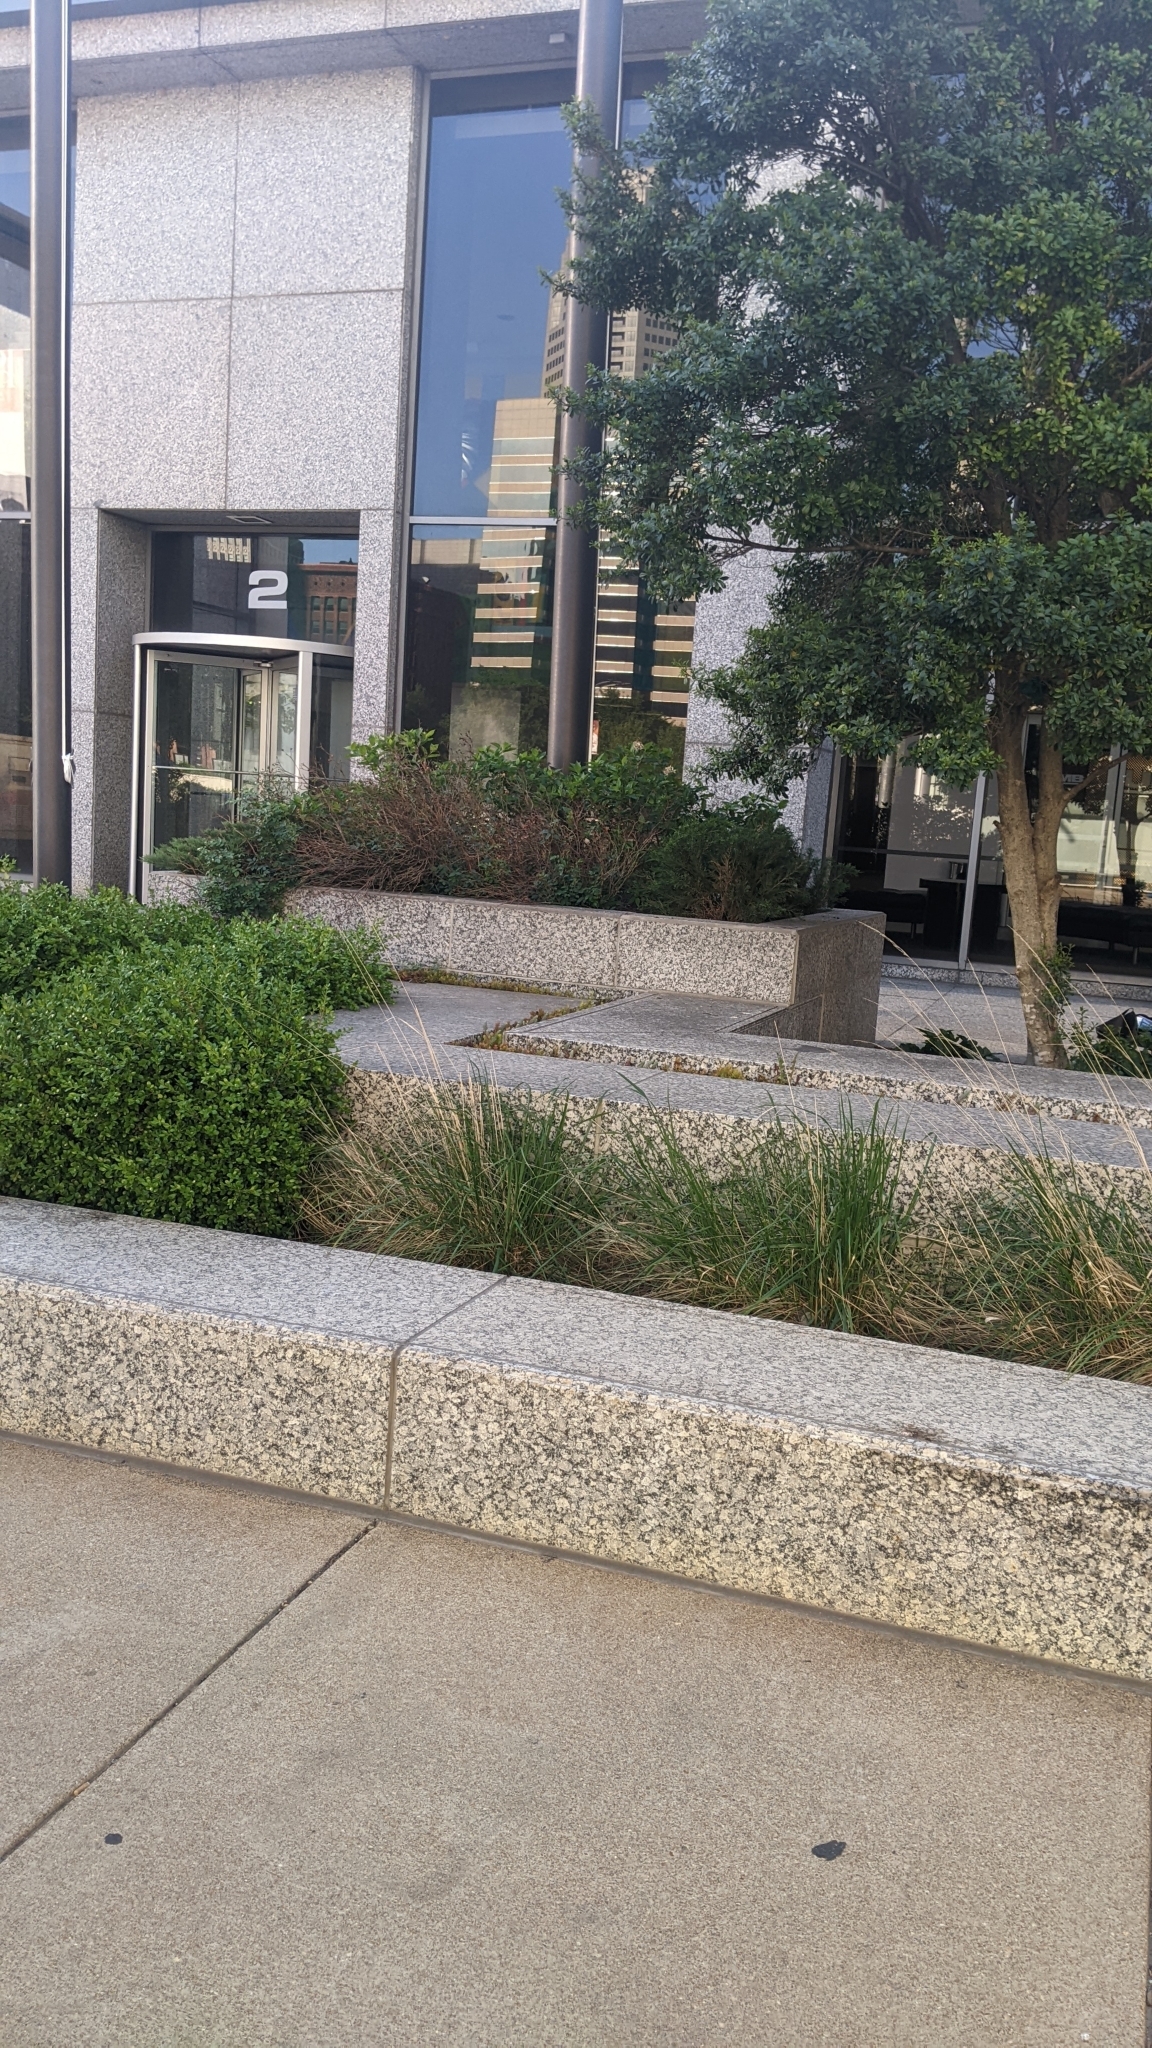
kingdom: Animalia
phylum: Chordata
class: Aves
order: Passeriformes
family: Passerellidae
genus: Zonotrichia
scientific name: Zonotrichia albicollis
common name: White-throated sparrow
